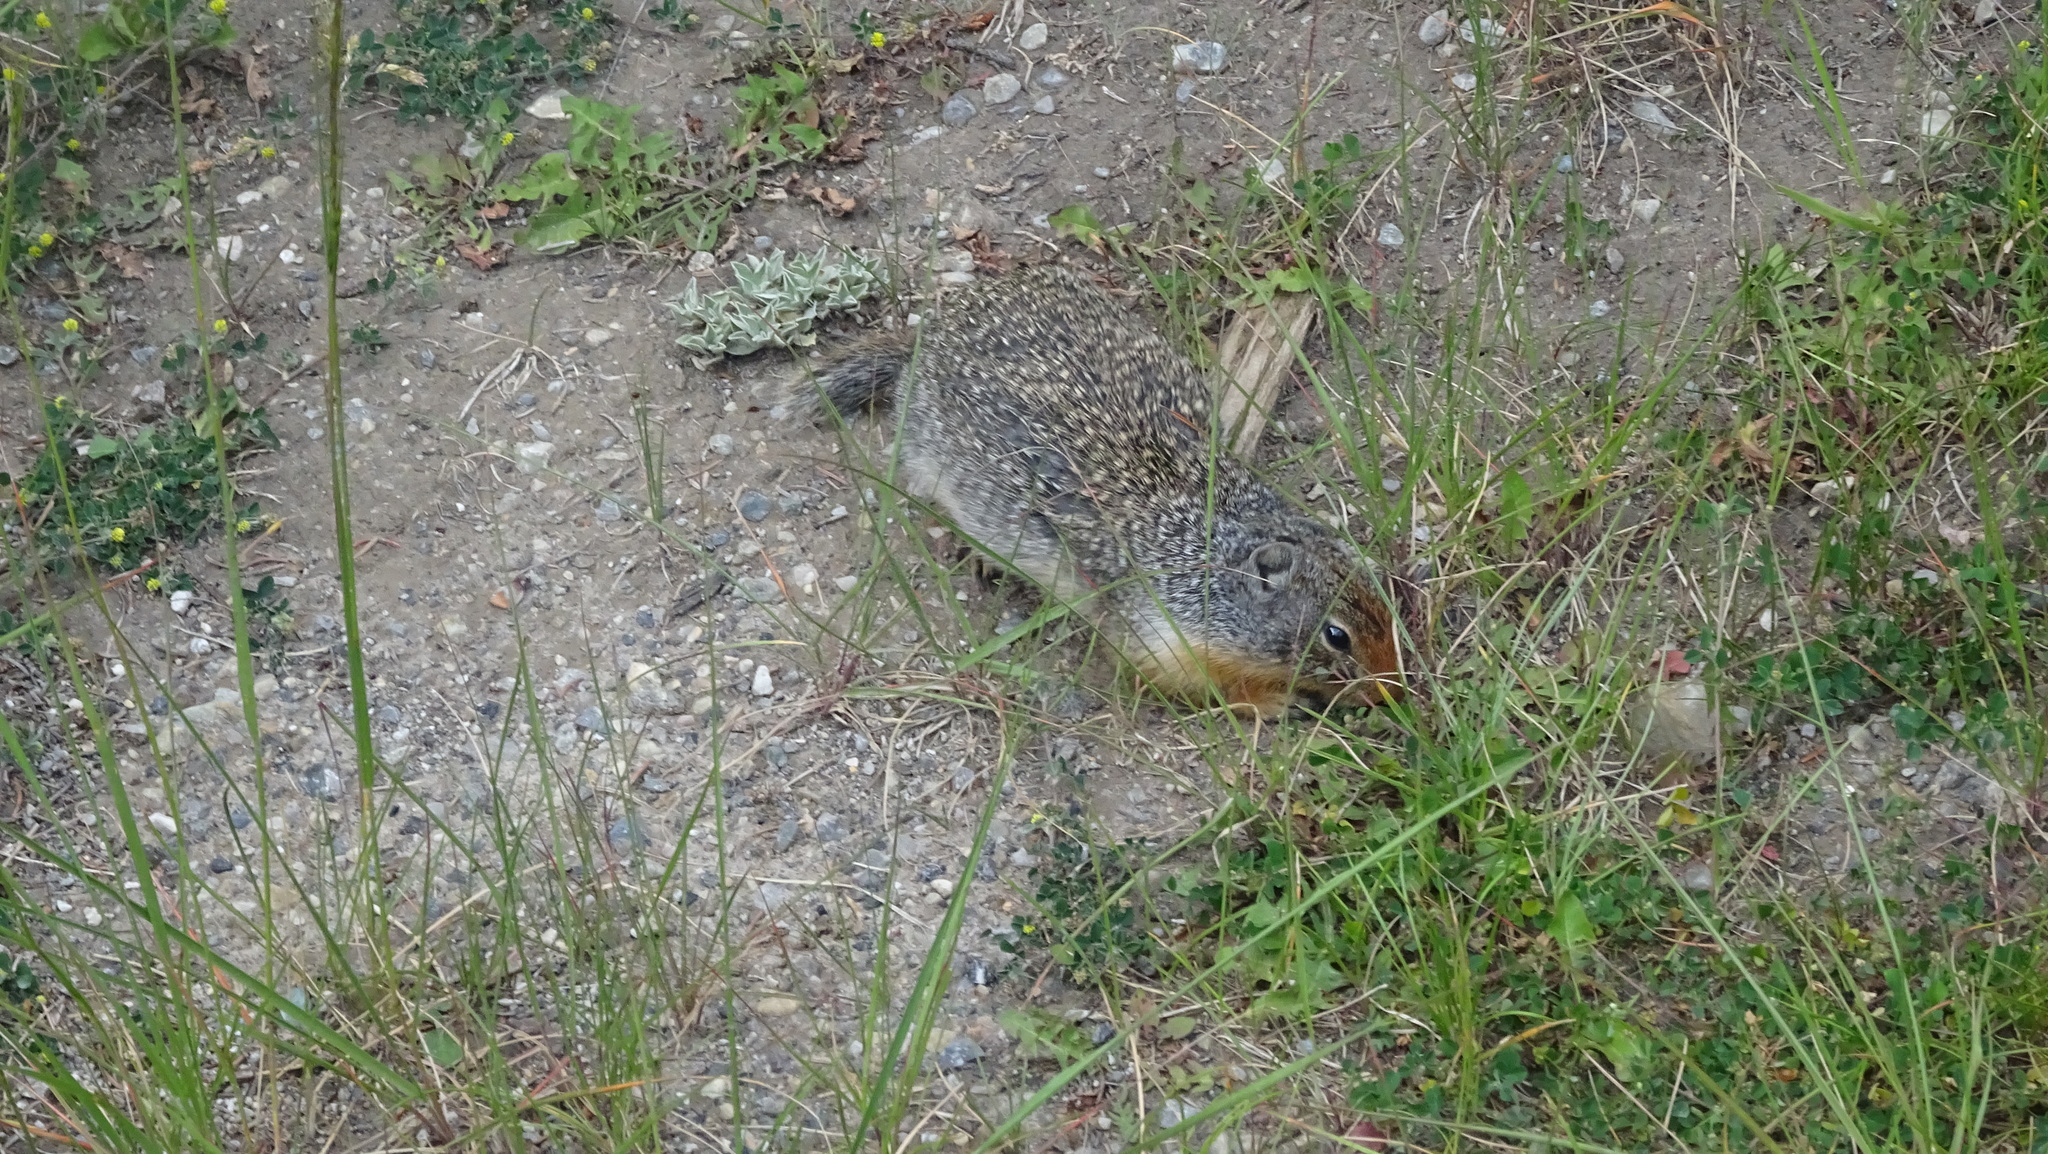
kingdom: Animalia
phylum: Chordata
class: Mammalia
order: Rodentia
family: Sciuridae
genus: Urocitellus
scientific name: Urocitellus columbianus
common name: Columbian ground squirrel
